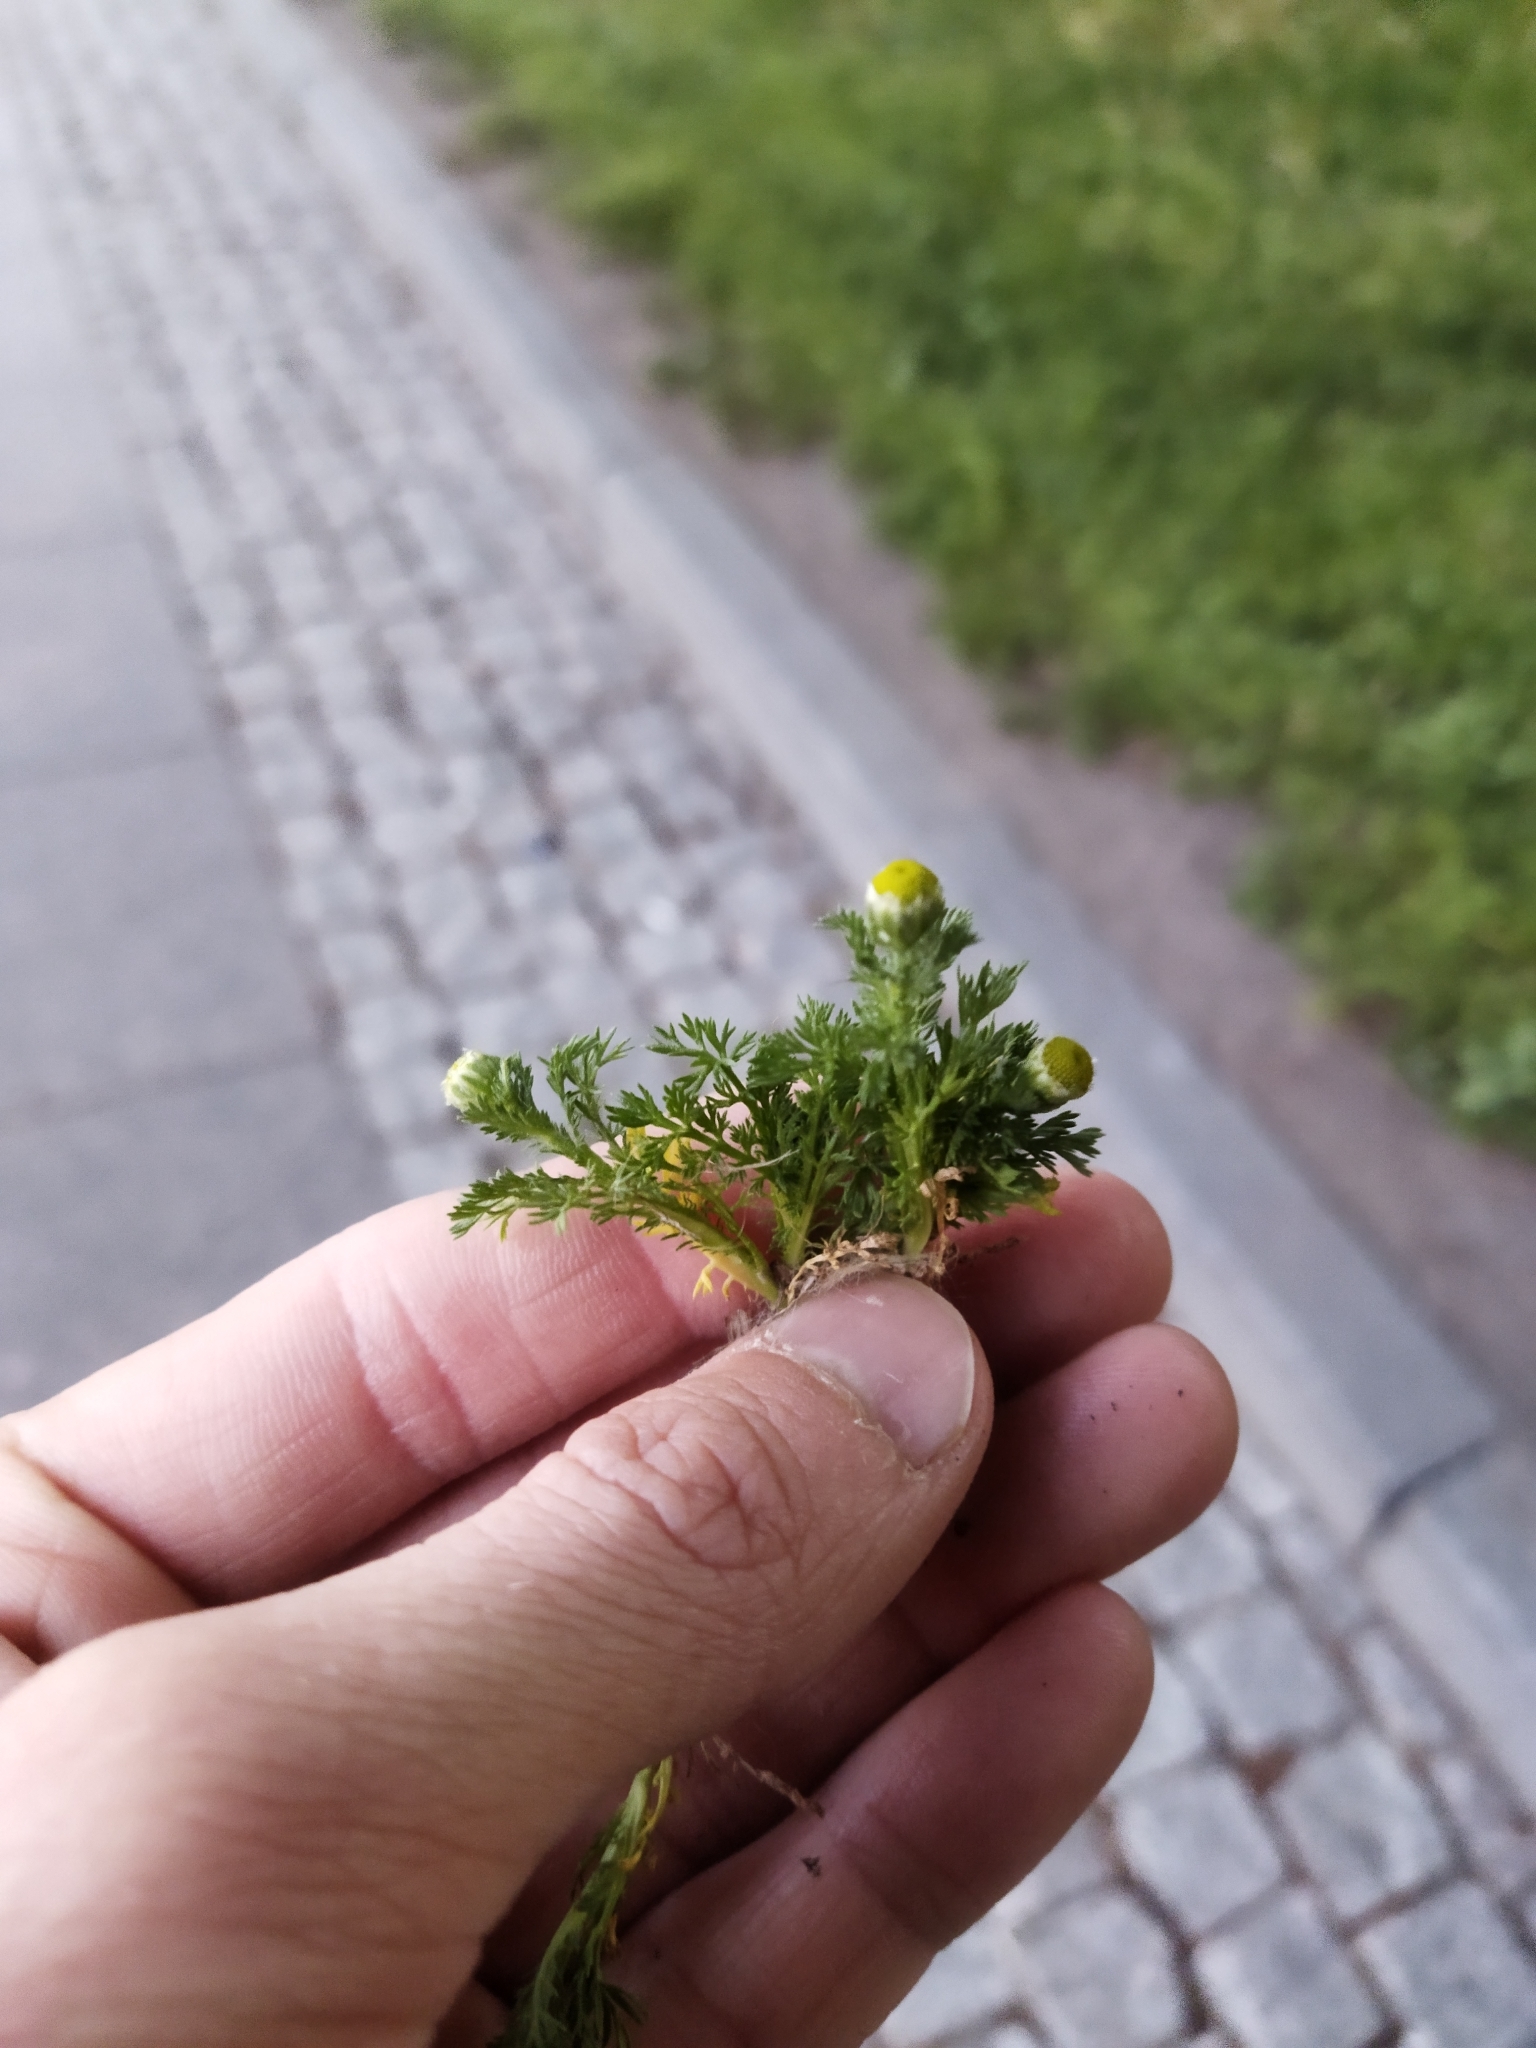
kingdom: Plantae
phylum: Tracheophyta
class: Magnoliopsida
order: Asterales
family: Asteraceae
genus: Matricaria
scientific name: Matricaria discoidea
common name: Disc mayweed
